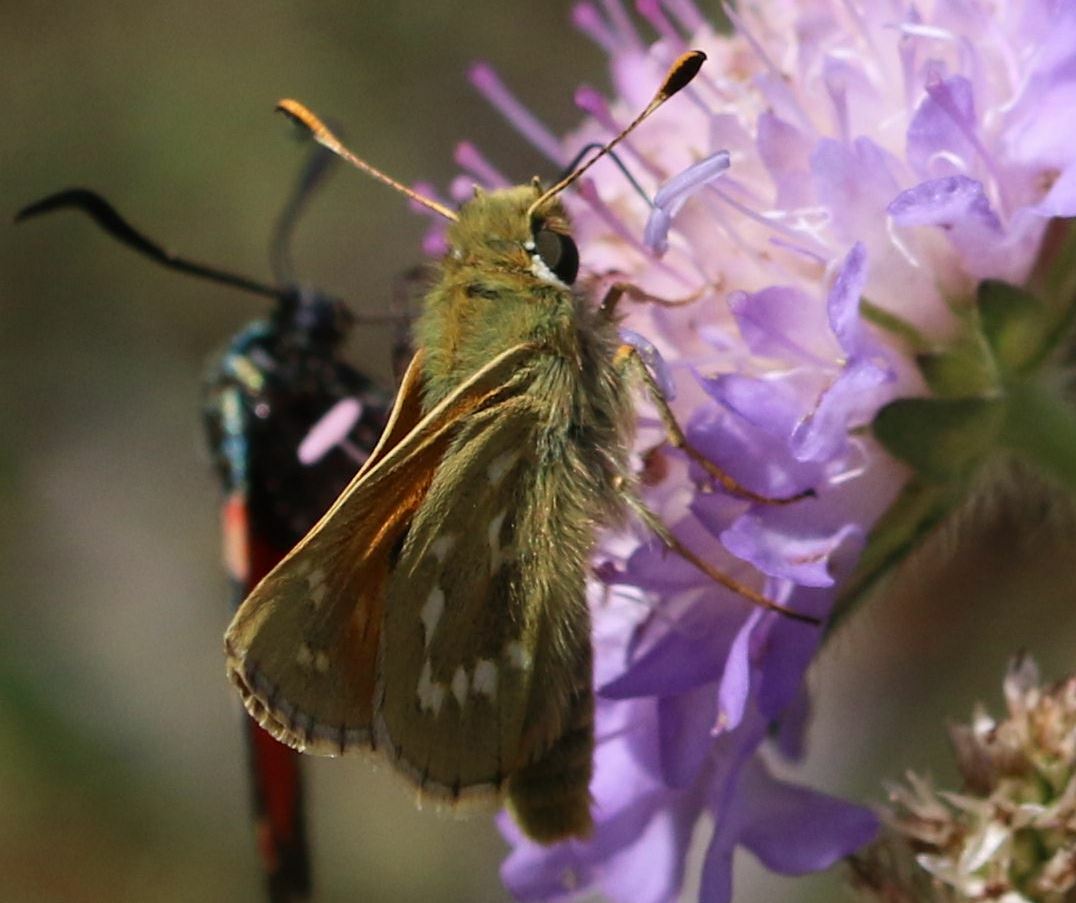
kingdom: Animalia
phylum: Arthropoda
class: Insecta
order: Lepidoptera
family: Hesperiidae
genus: Hesperia
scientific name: Hesperia comma
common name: Common branded skipper
